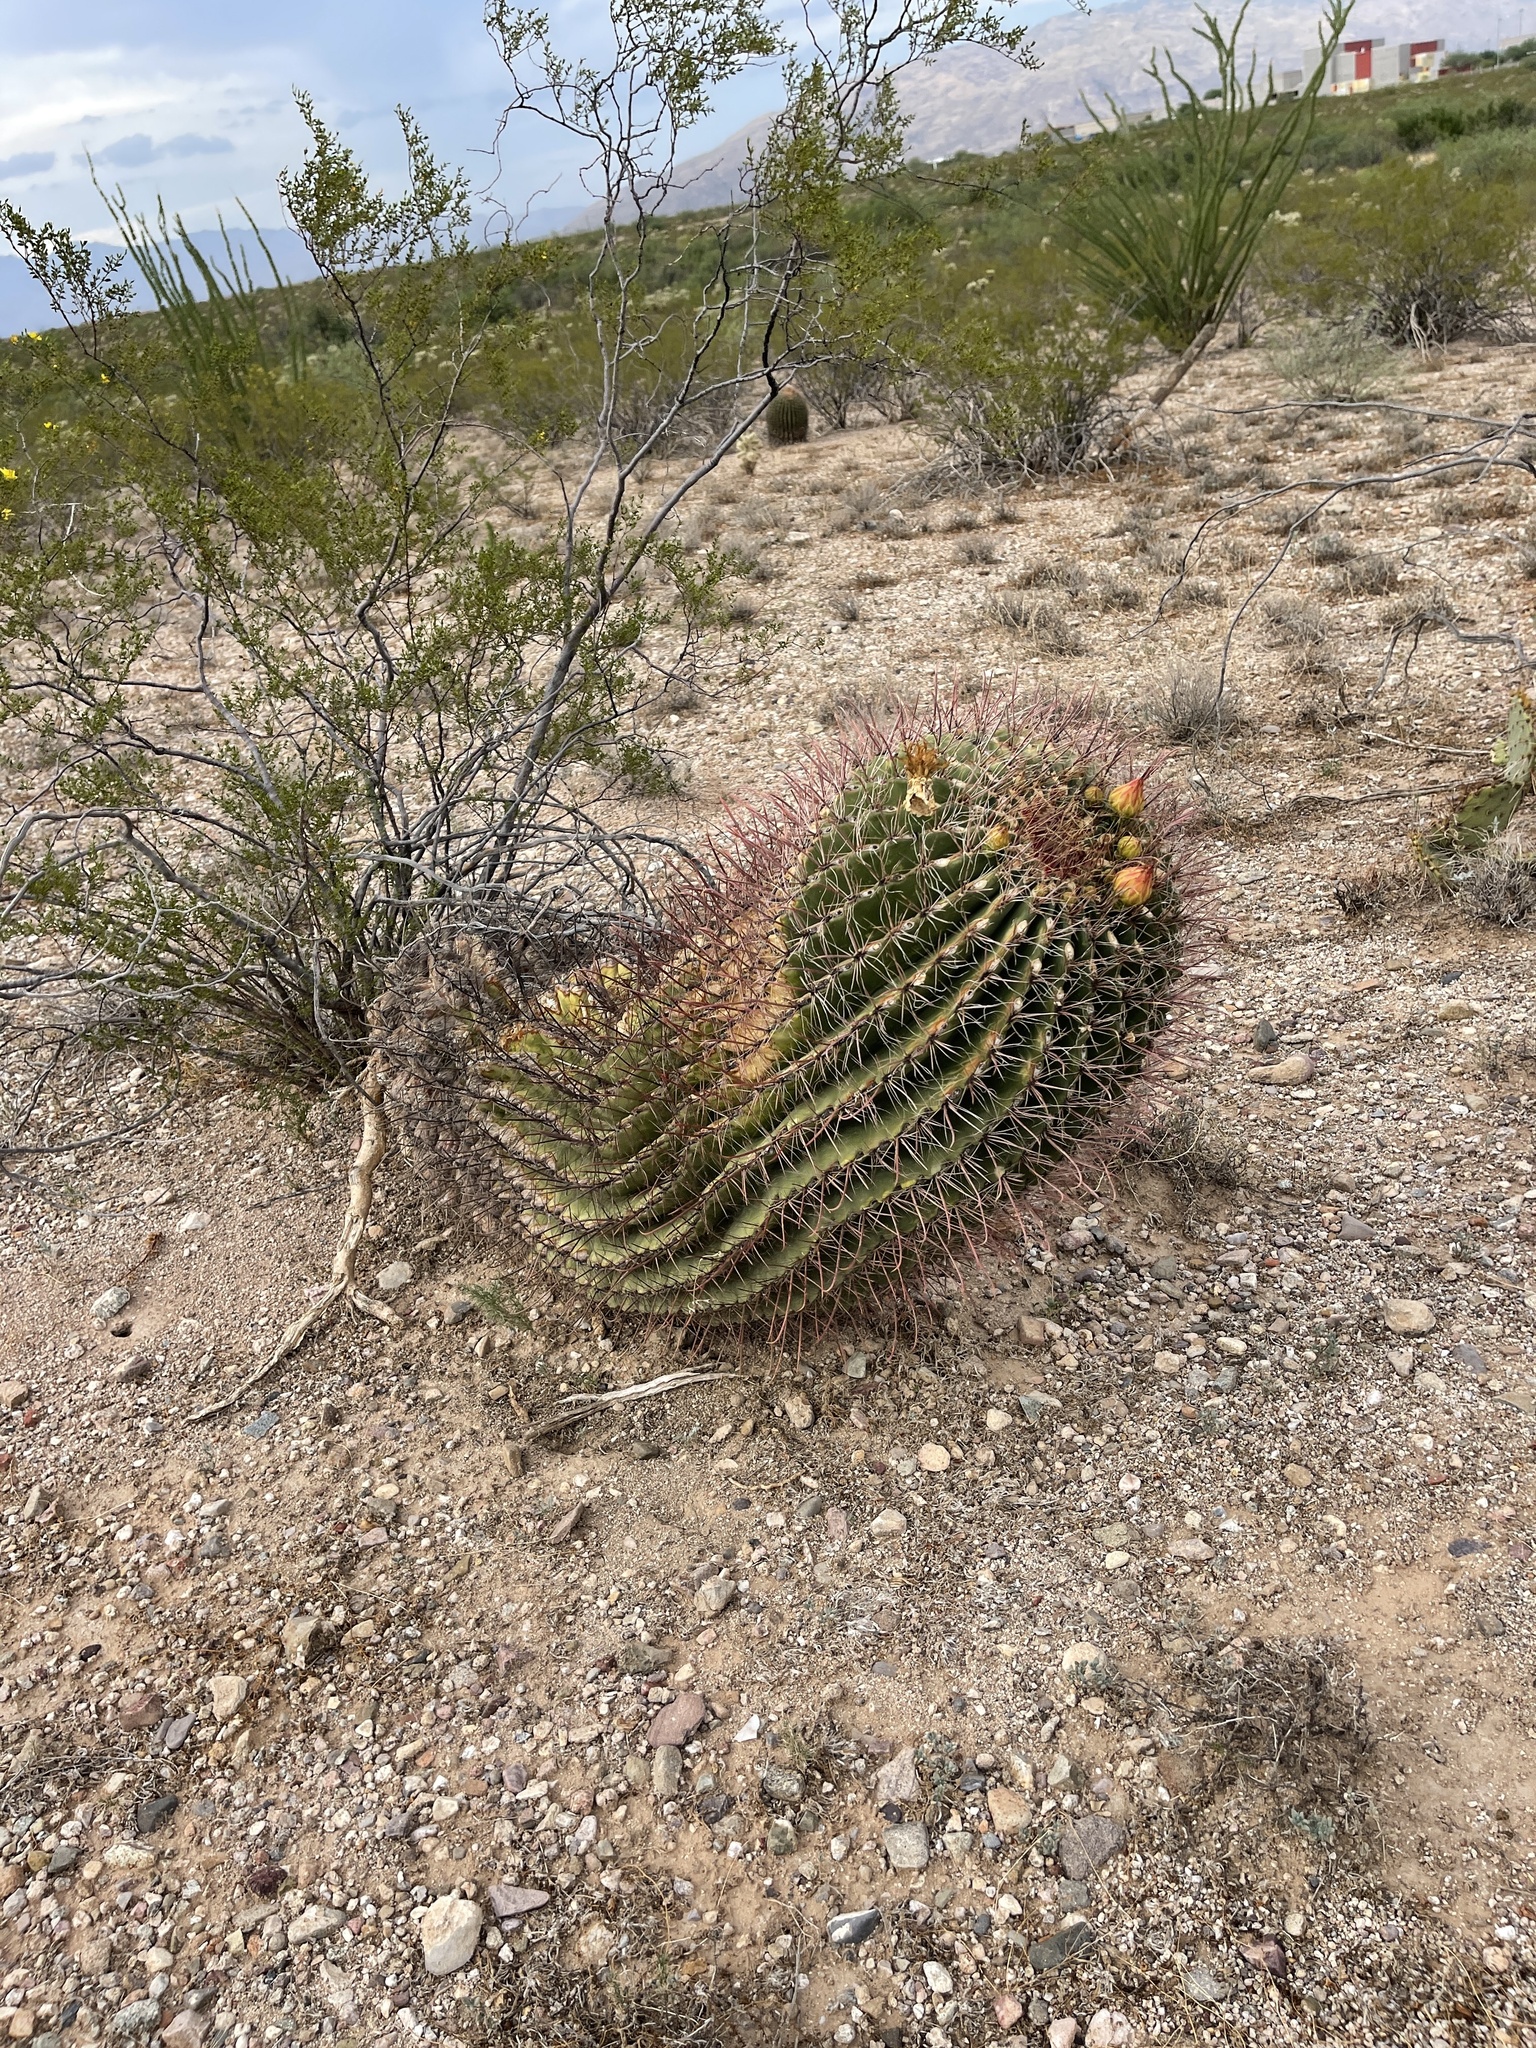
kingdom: Plantae
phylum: Tracheophyta
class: Magnoliopsida
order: Caryophyllales
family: Cactaceae
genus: Ferocactus
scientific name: Ferocactus wislizeni
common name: Candy barrel cactus
